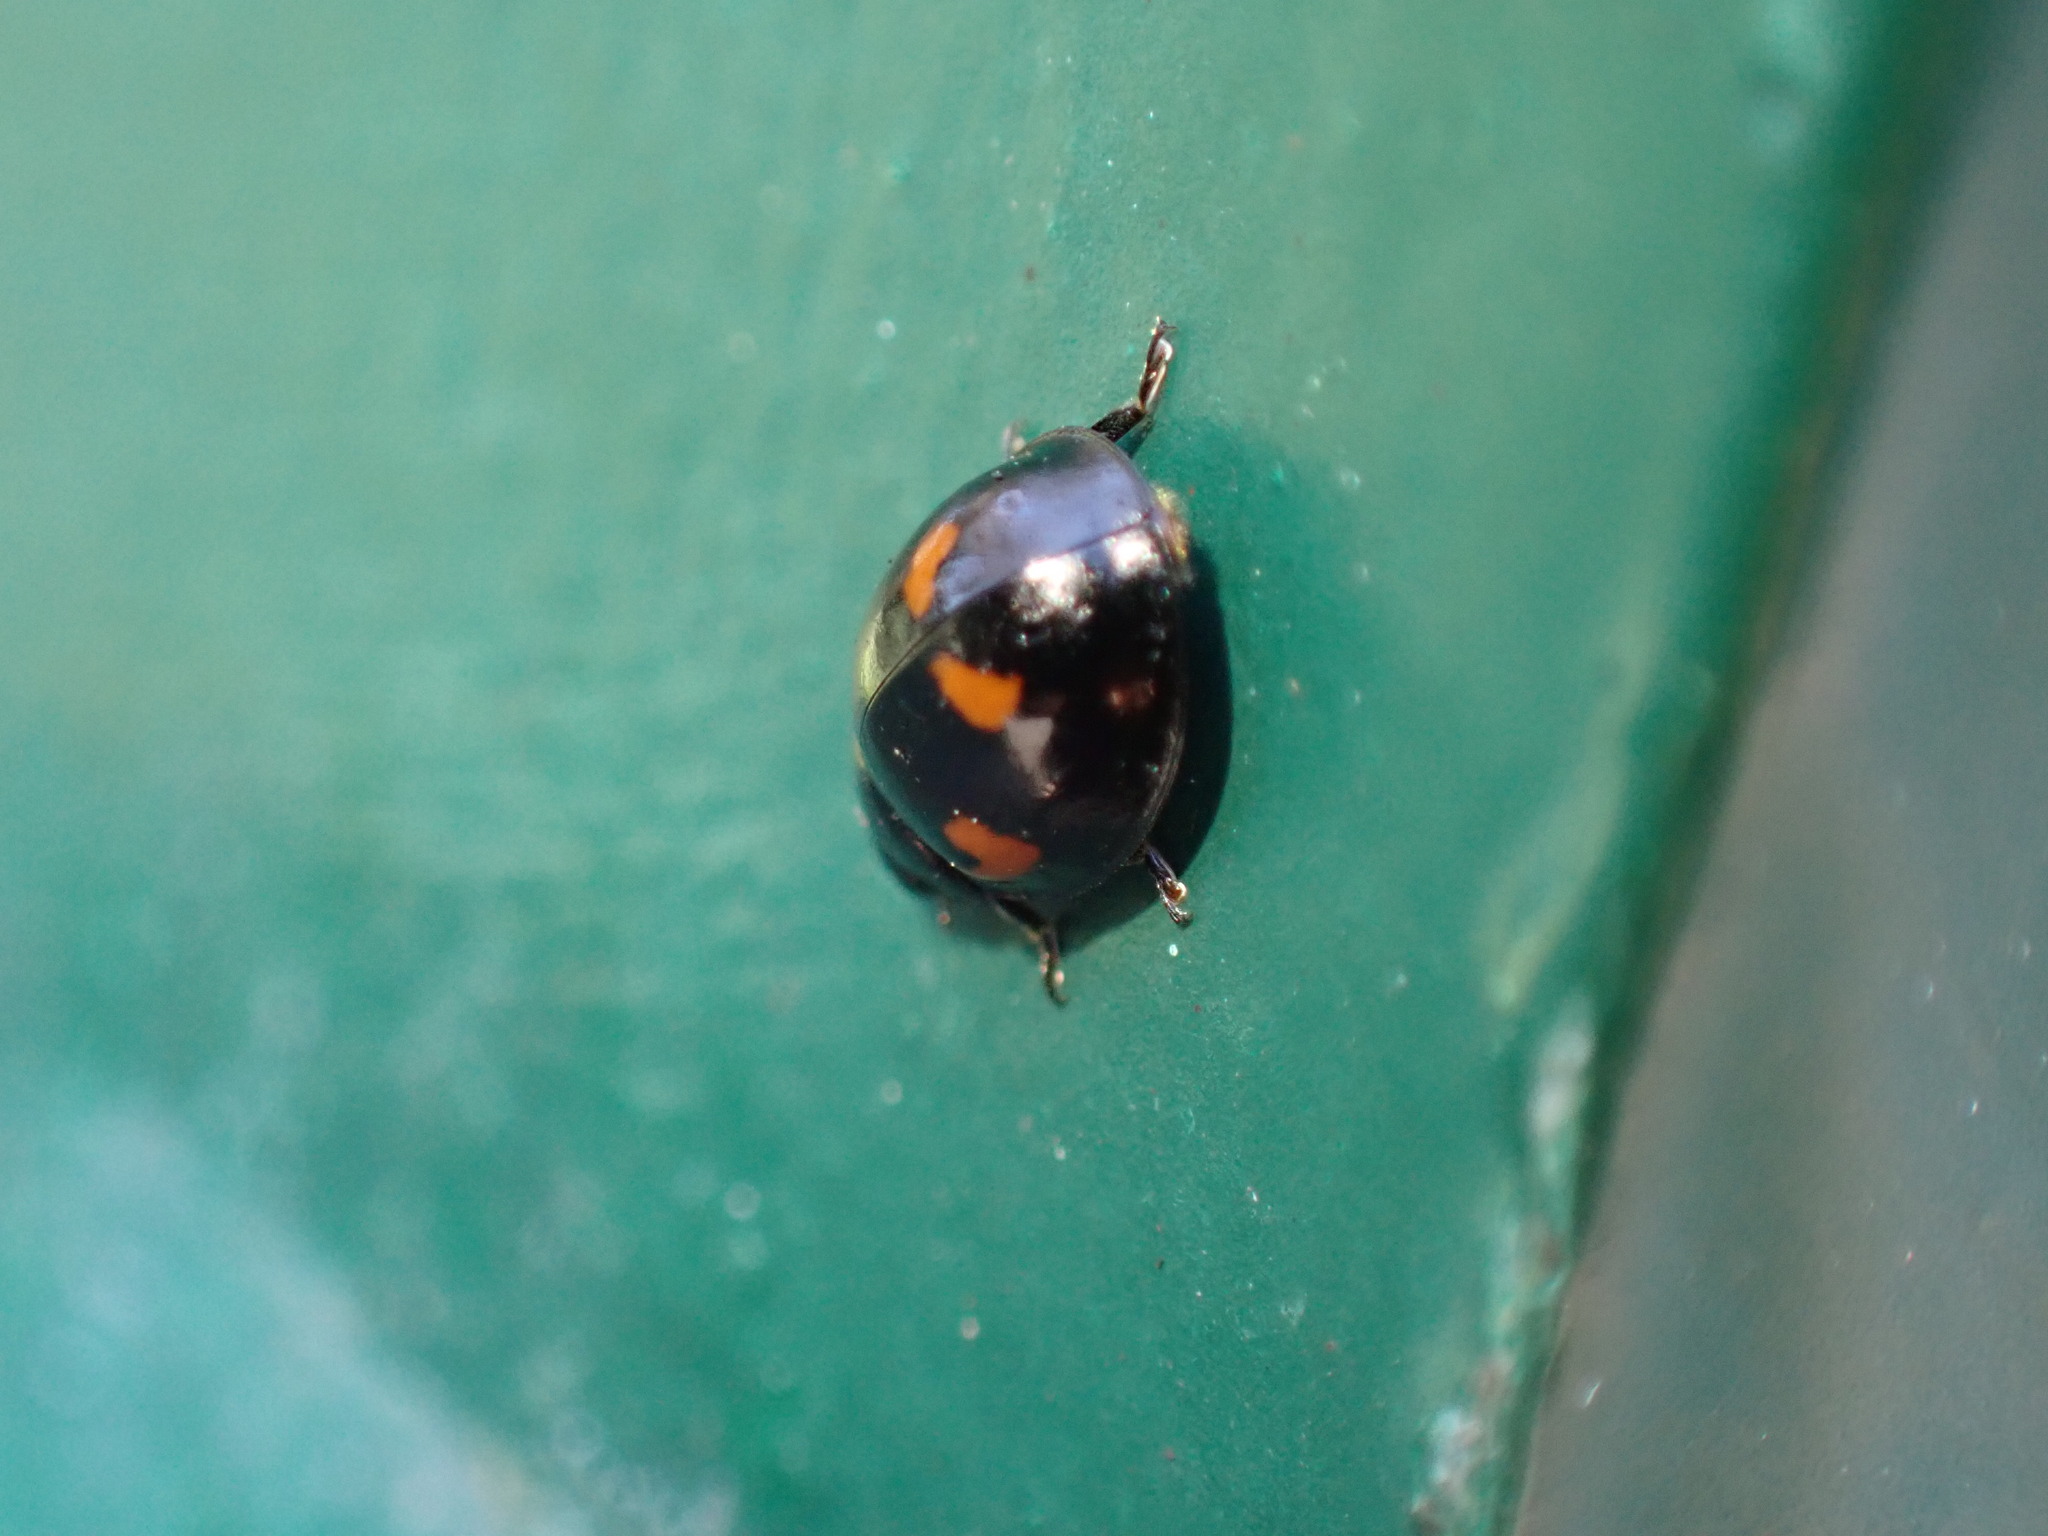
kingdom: Animalia
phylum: Arthropoda
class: Insecta
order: Coleoptera
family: Coccinellidae
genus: Brumus
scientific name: Brumus quadripustulatus
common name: Ladybird beetle
